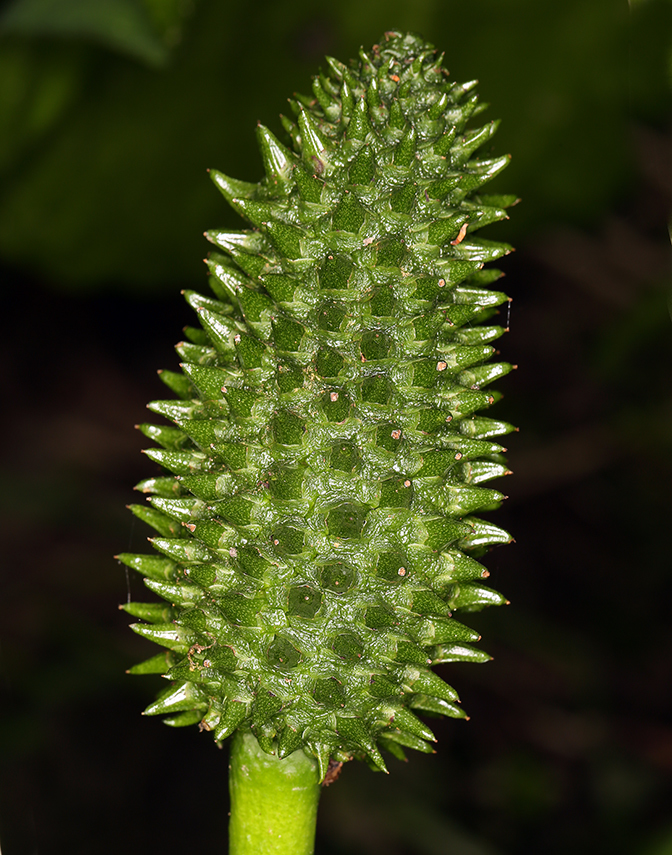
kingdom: Plantae
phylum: Tracheophyta
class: Liliopsida
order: Alismatales
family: Araceae
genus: Lysichiton
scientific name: Lysichiton americanus
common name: American skunk cabbage
